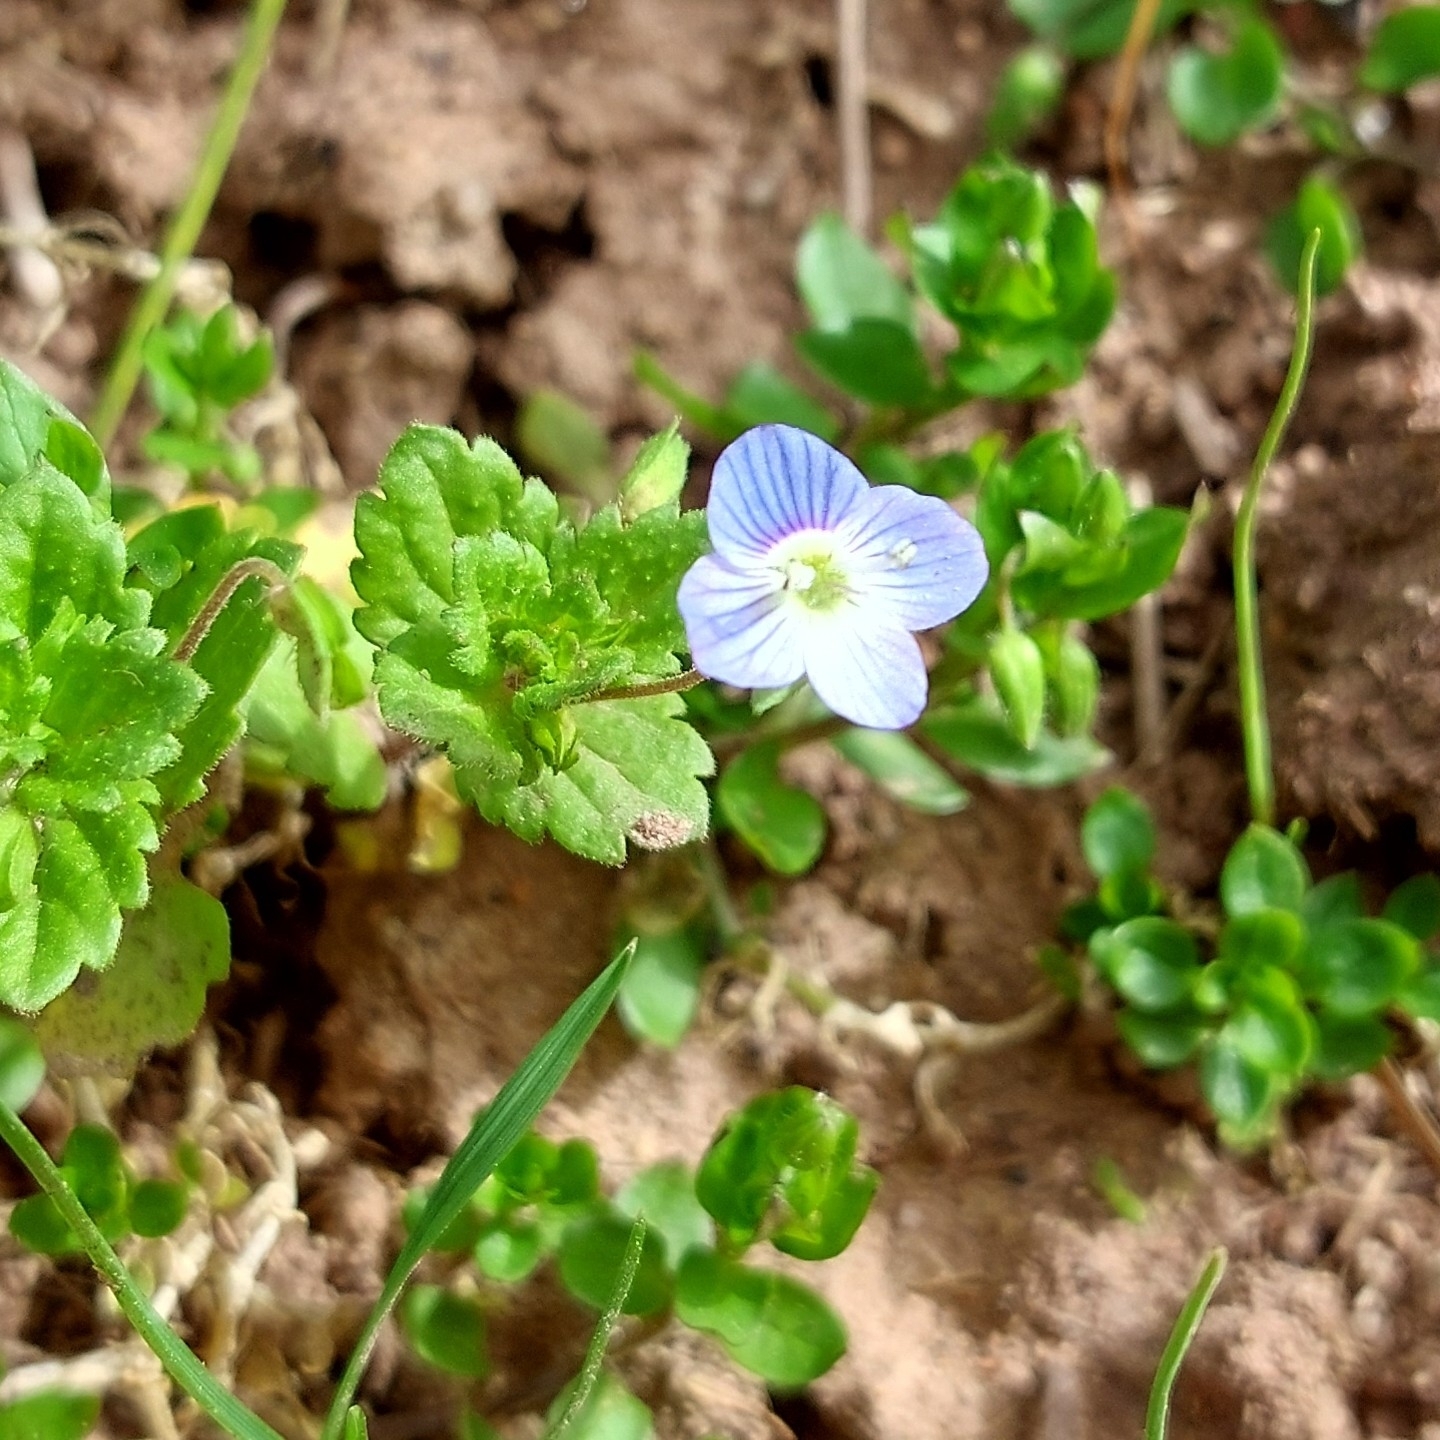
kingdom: Plantae
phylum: Tracheophyta
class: Magnoliopsida
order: Lamiales
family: Plantaginaceae
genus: Veronica
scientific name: Veronica persica
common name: Common field-speedwell
